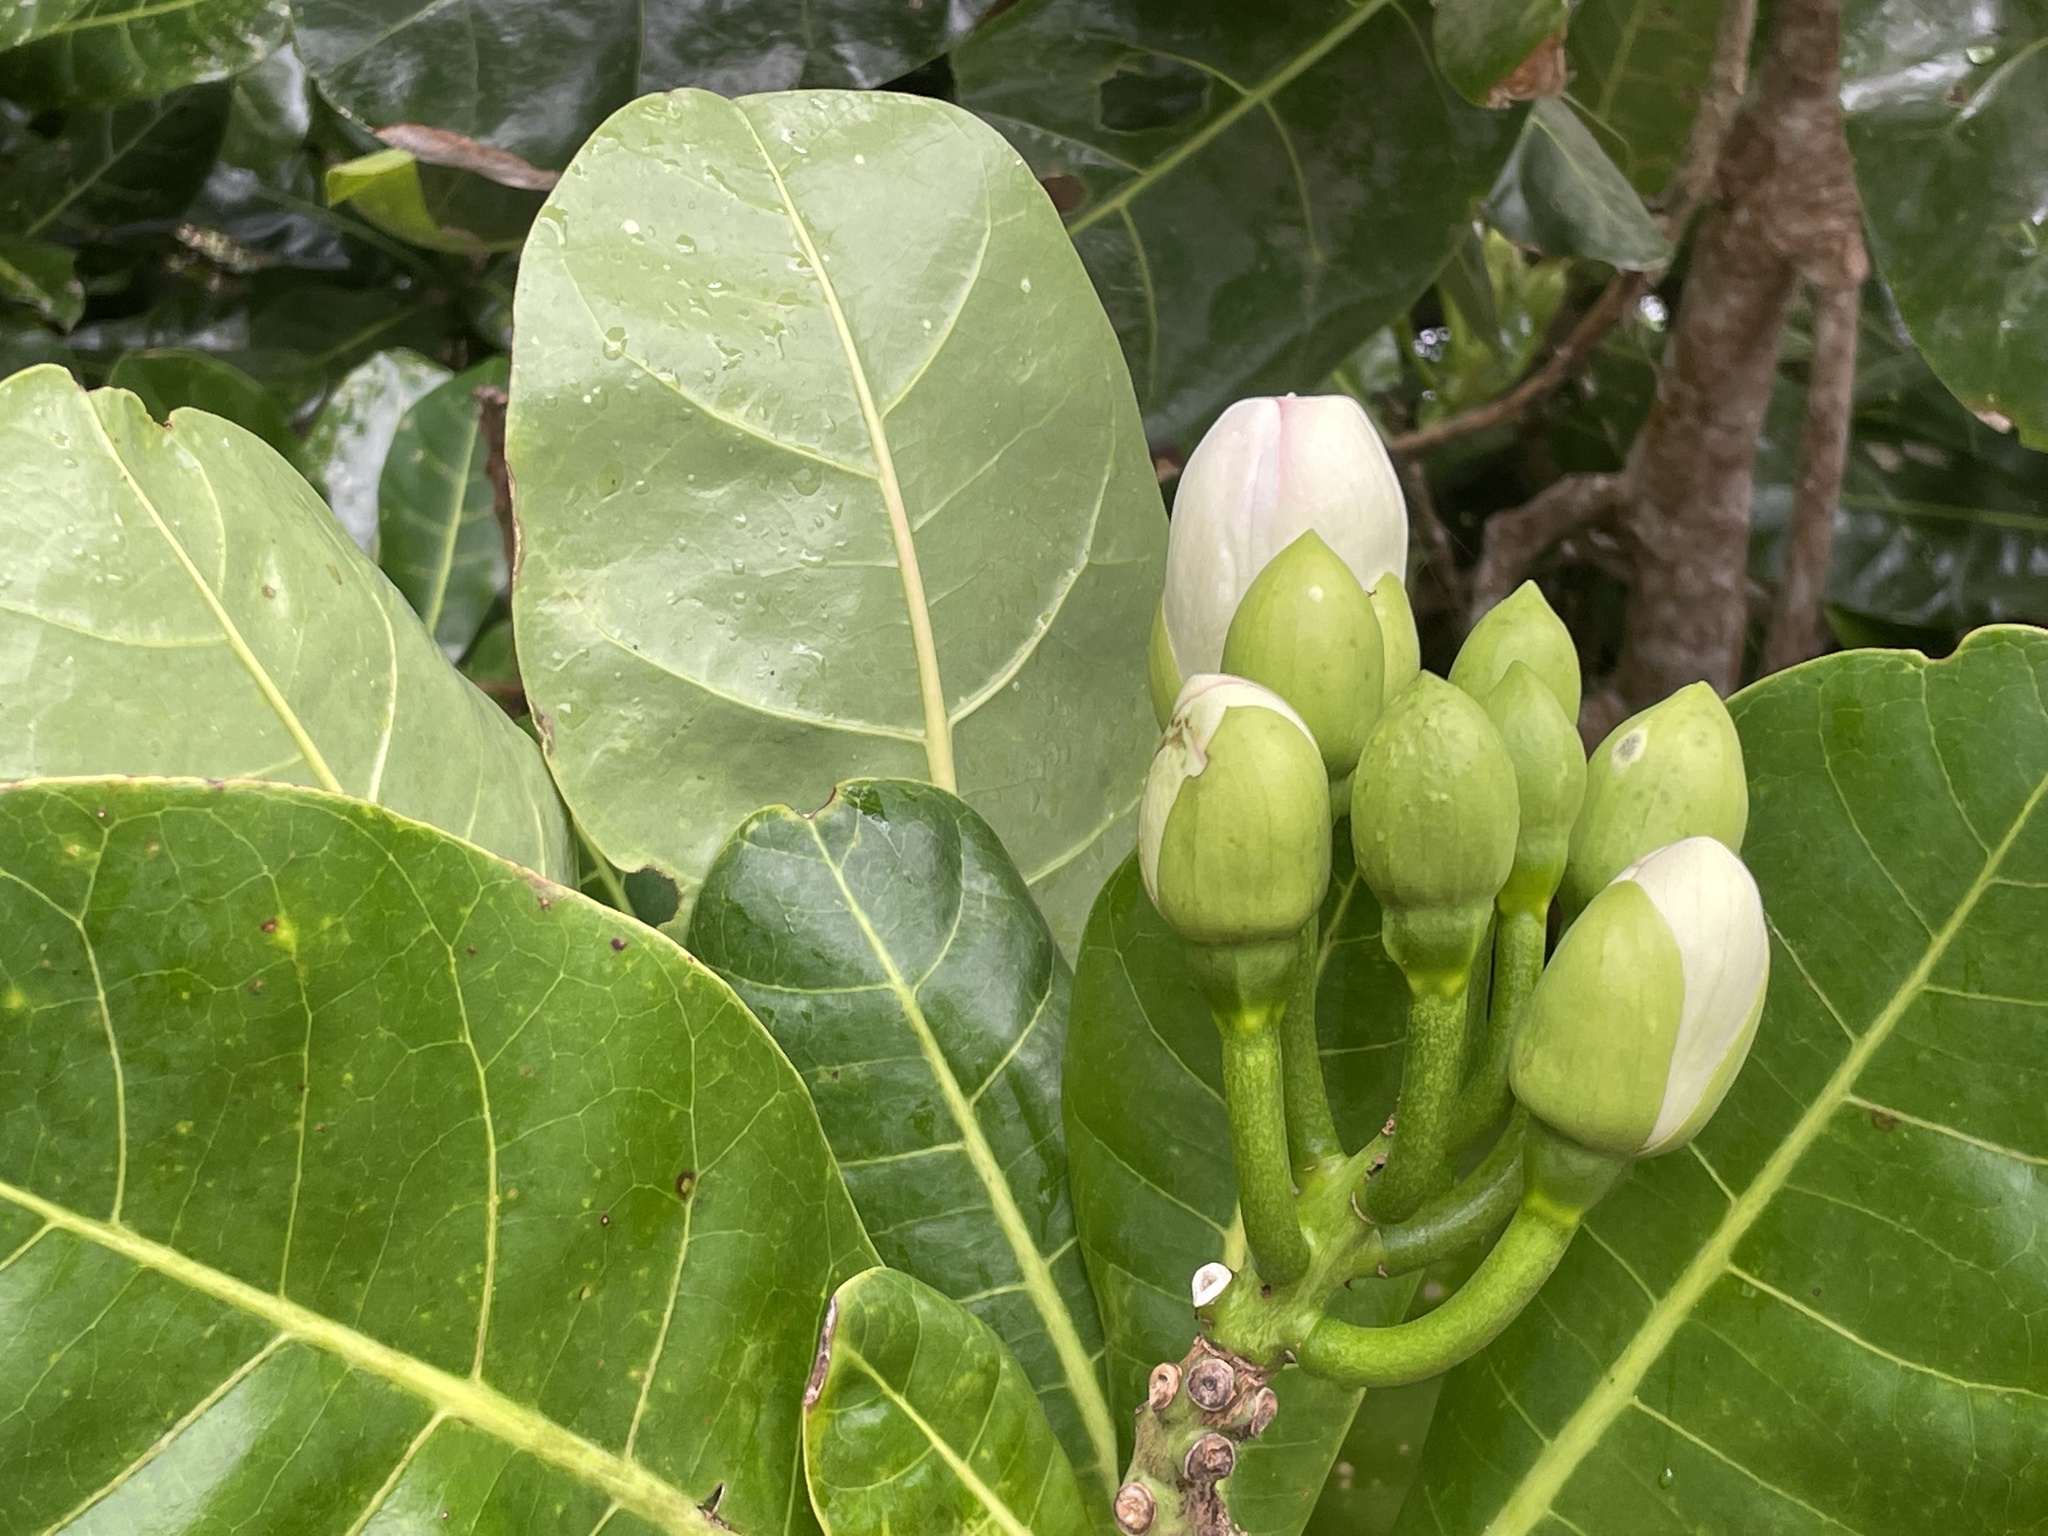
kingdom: Plantae
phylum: Tracheophyta
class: Magnoliopsida
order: Ericales
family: Lecythidaceae
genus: Barringtonia
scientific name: Barringtonia asiatica
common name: Mango-pine
